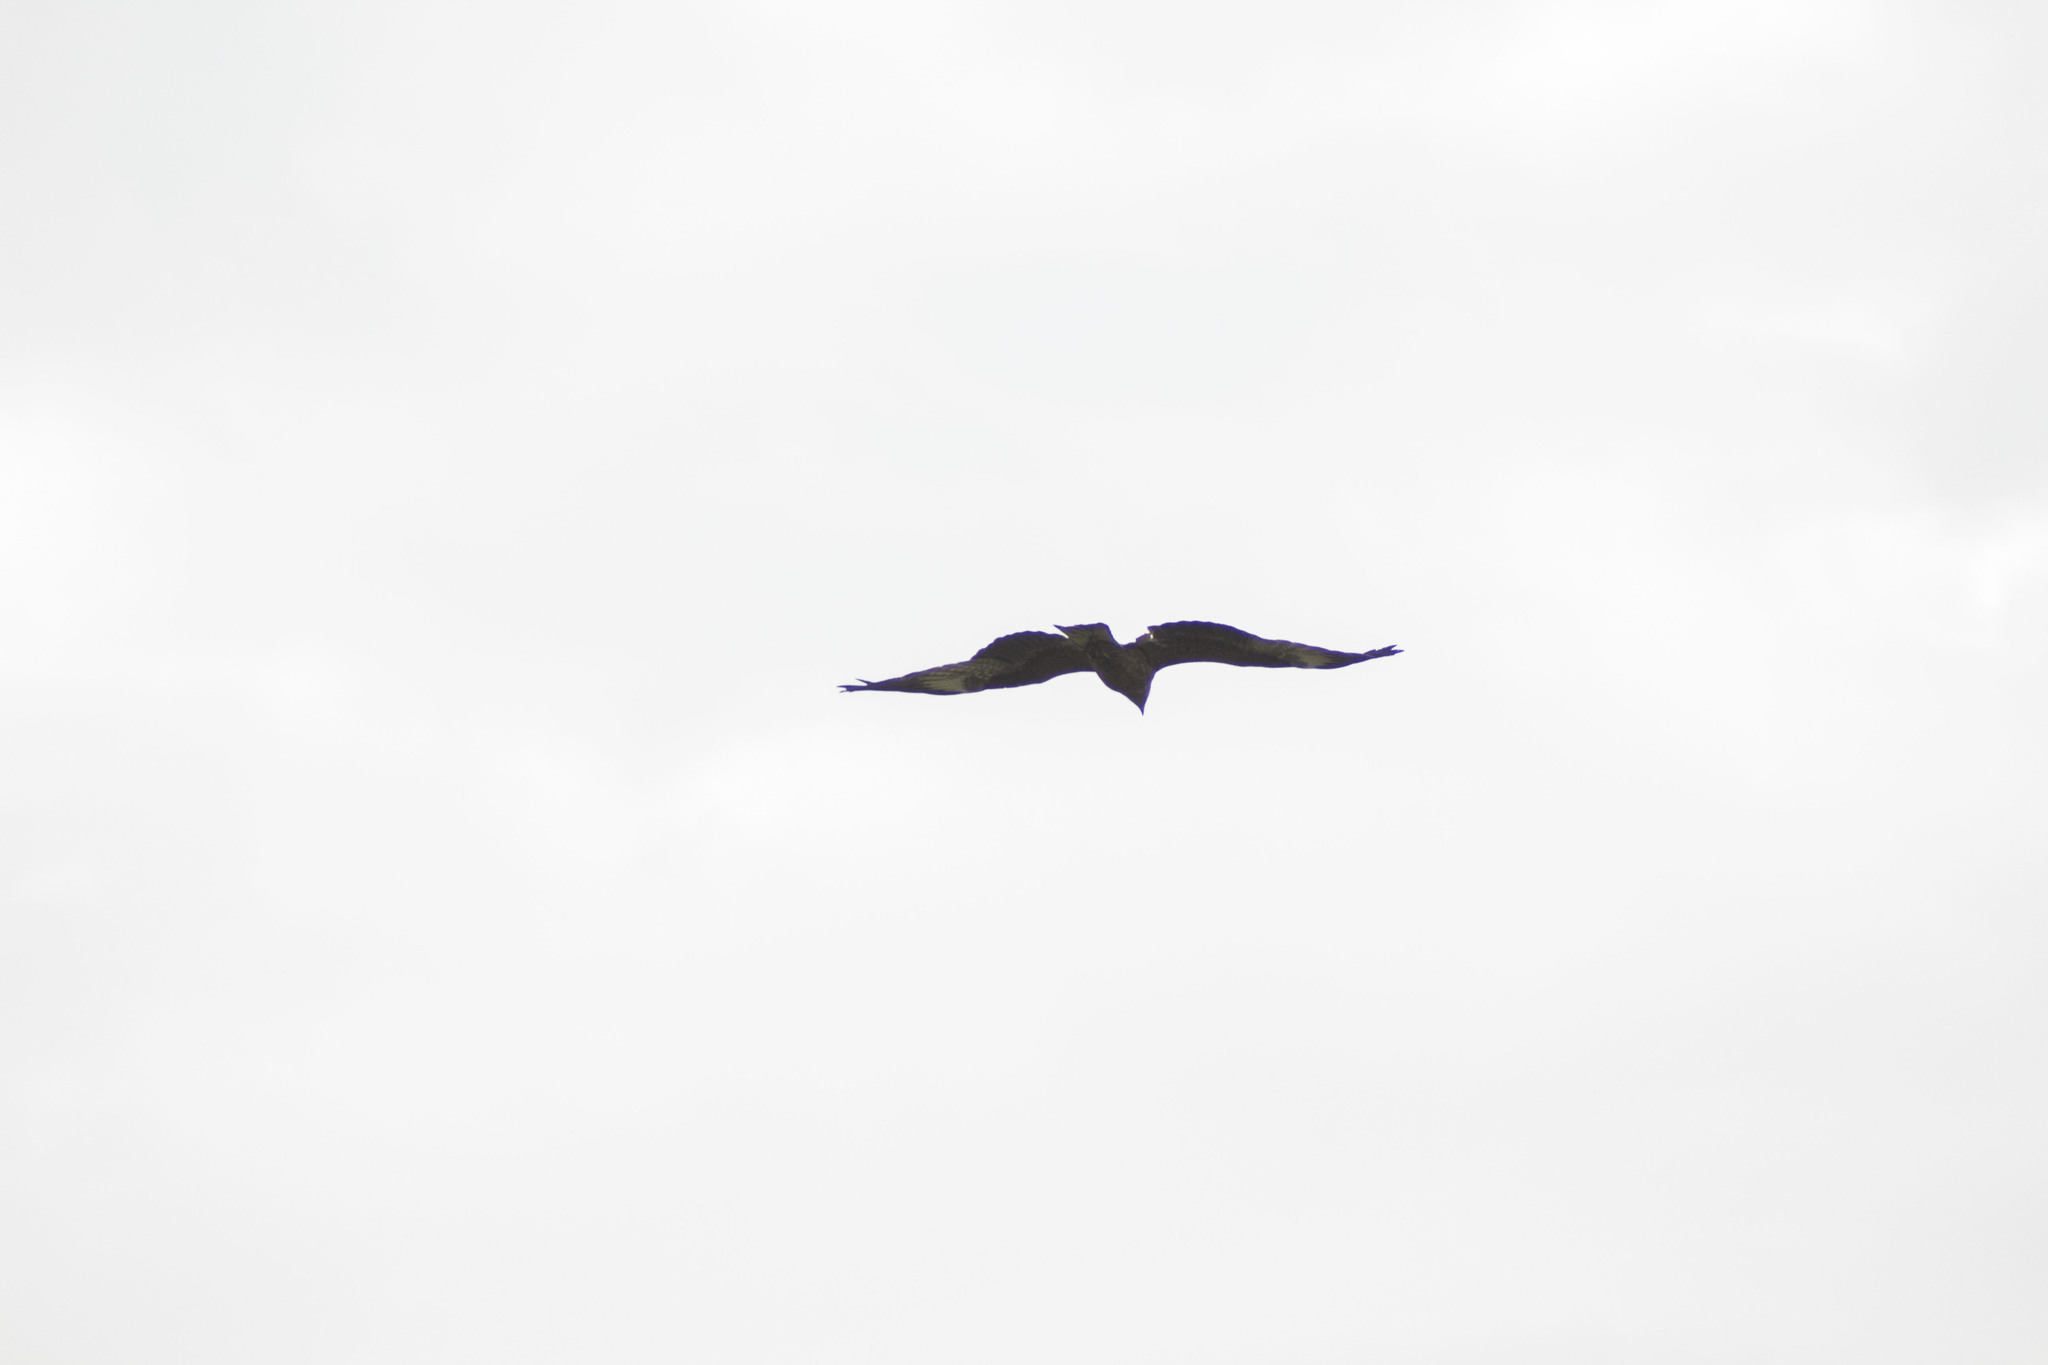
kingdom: Animalia
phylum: Chordata
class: Aves
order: Accipitriformes
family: Accipitridae
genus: Milvus
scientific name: Milvus migrans
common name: Black kite
